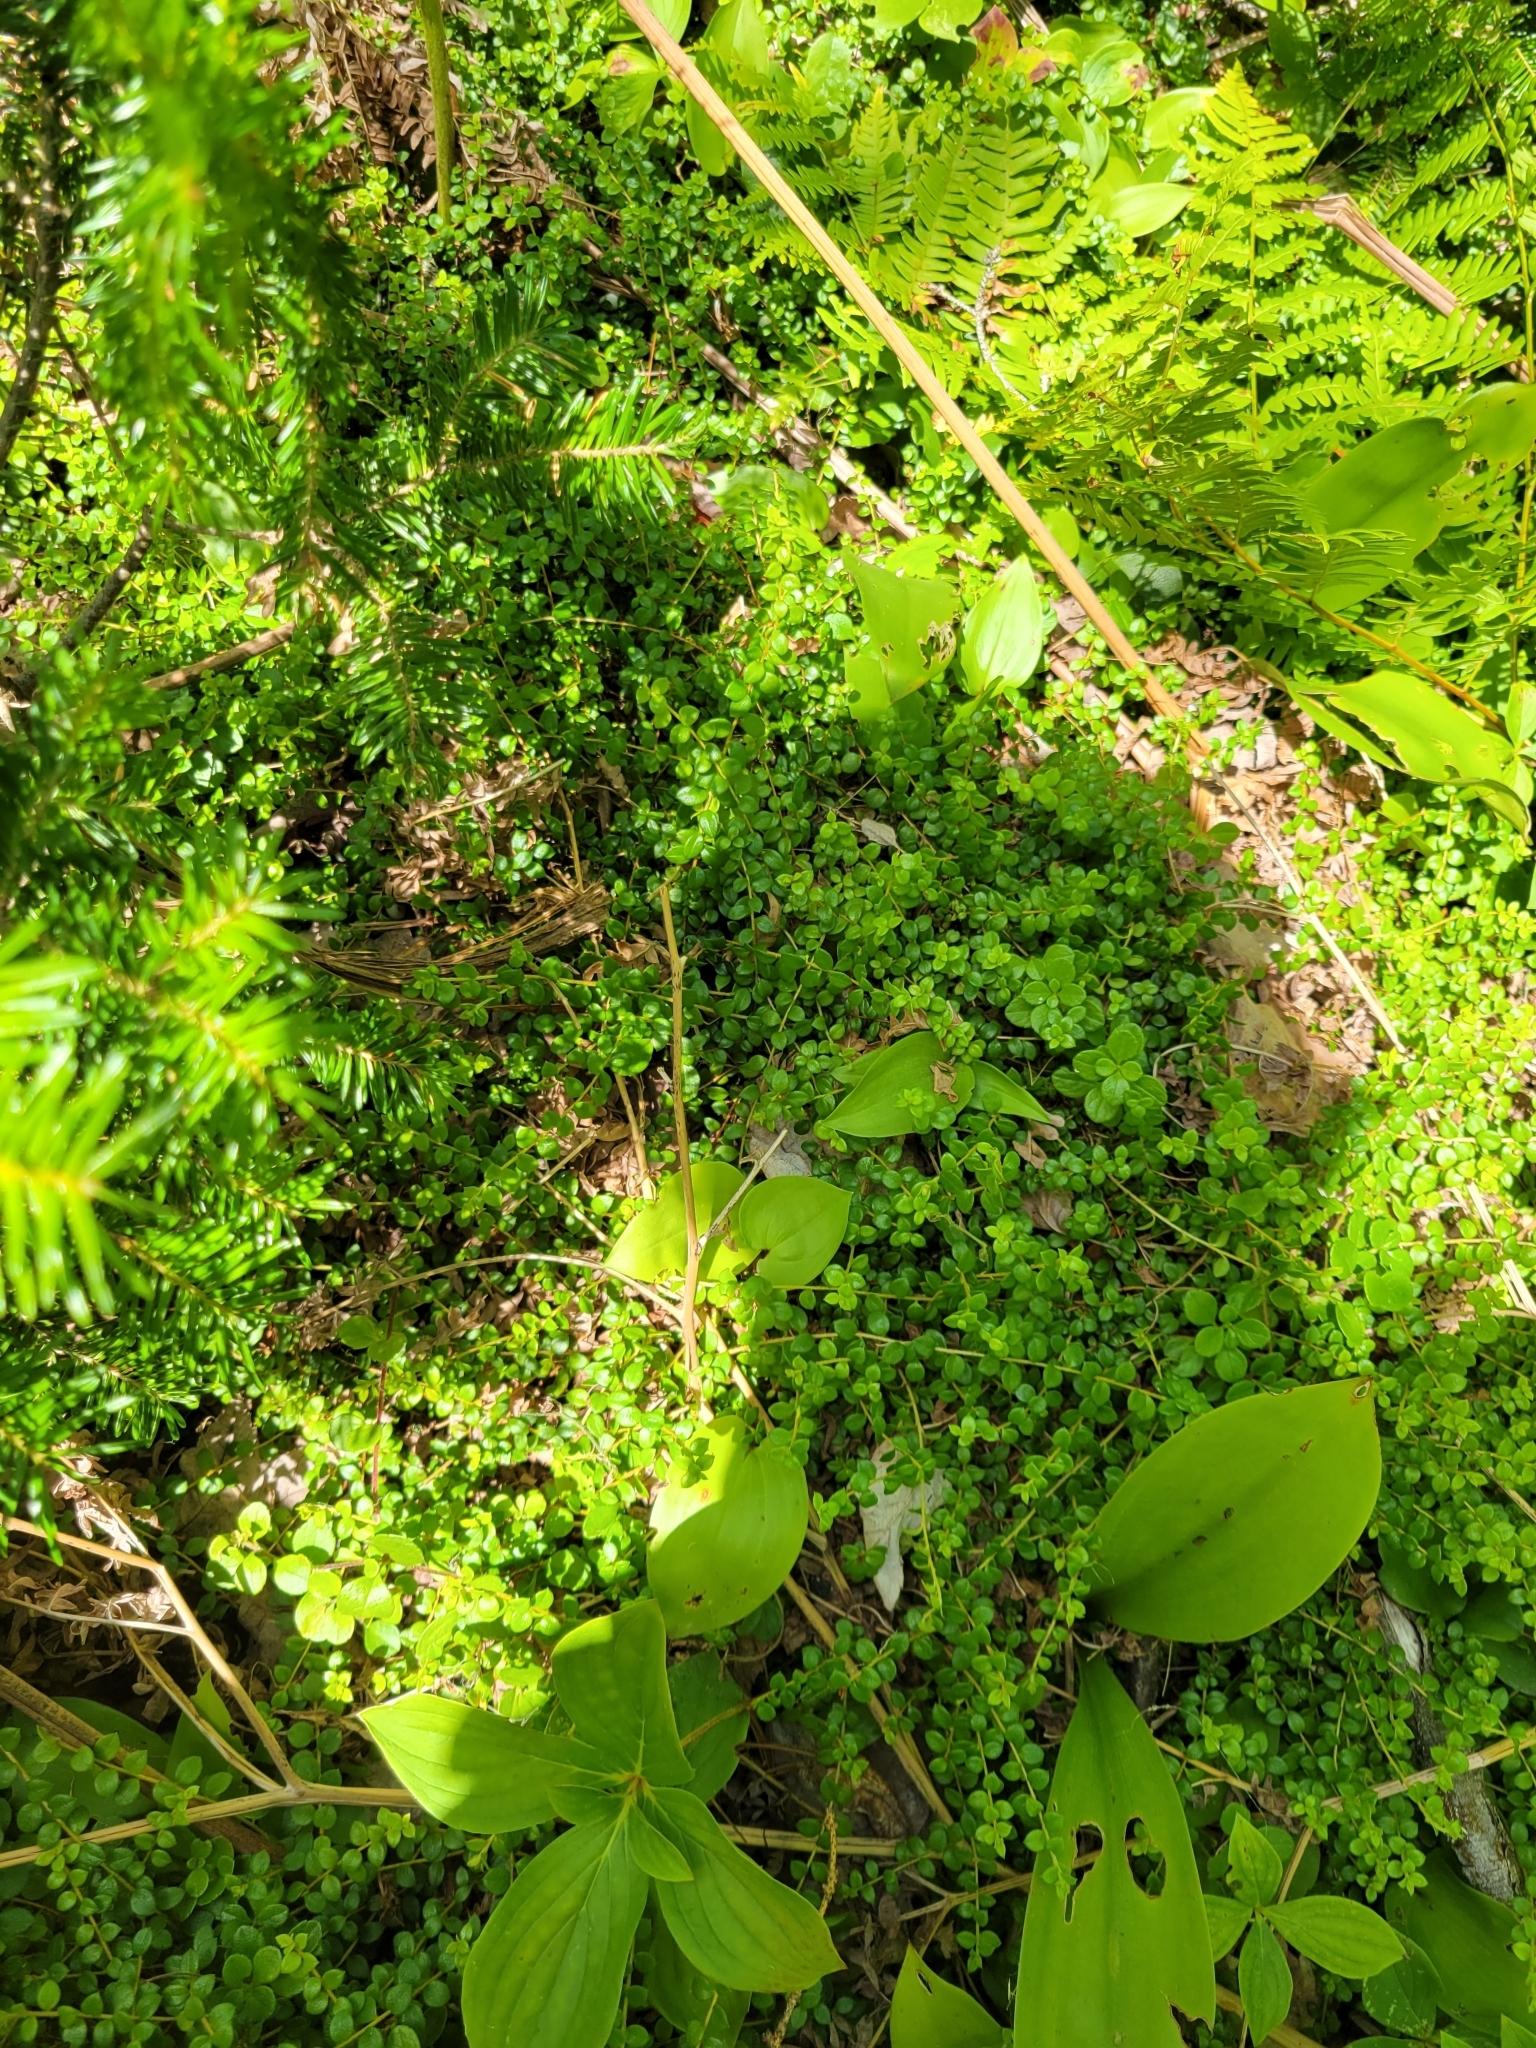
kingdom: Plantae
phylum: Tracheophyta
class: Magnoliopsida
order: Ericales
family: Ericaceae
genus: Gaultheria
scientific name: Gaultheria hispidula
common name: Cancer wintergreen
